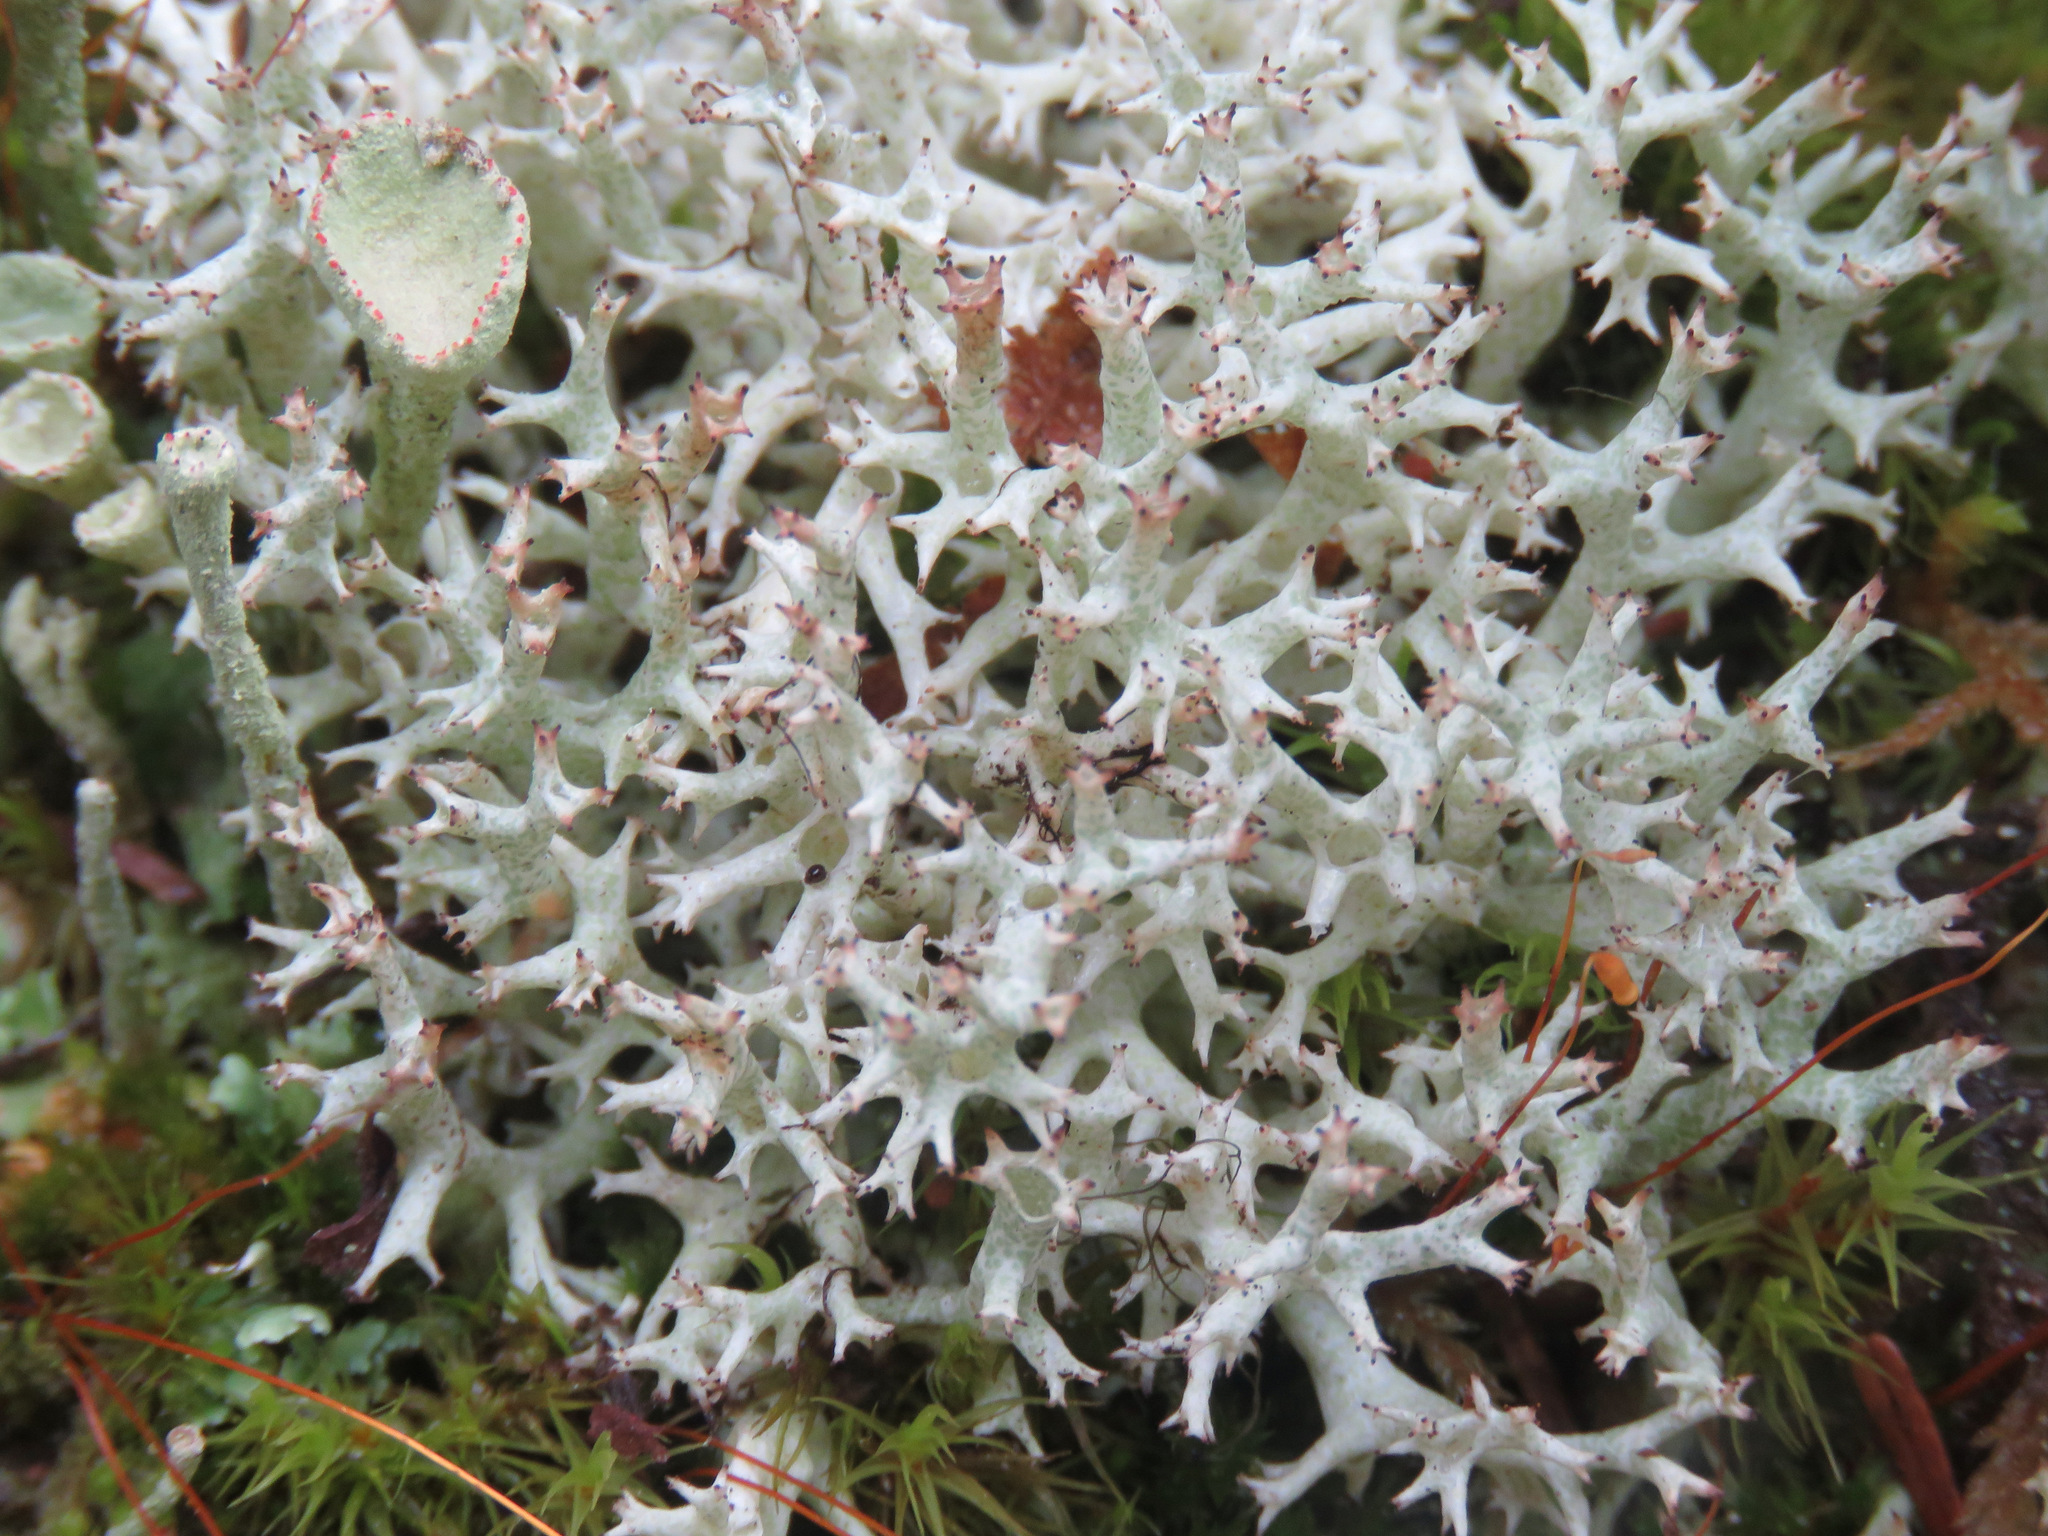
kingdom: Fungi
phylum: Ascomycota
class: Lecanoromycetes
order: Lecanorales
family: Cladoniaceae
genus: Cladonia
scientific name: Cladonia uncialis
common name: Thorn lichen
